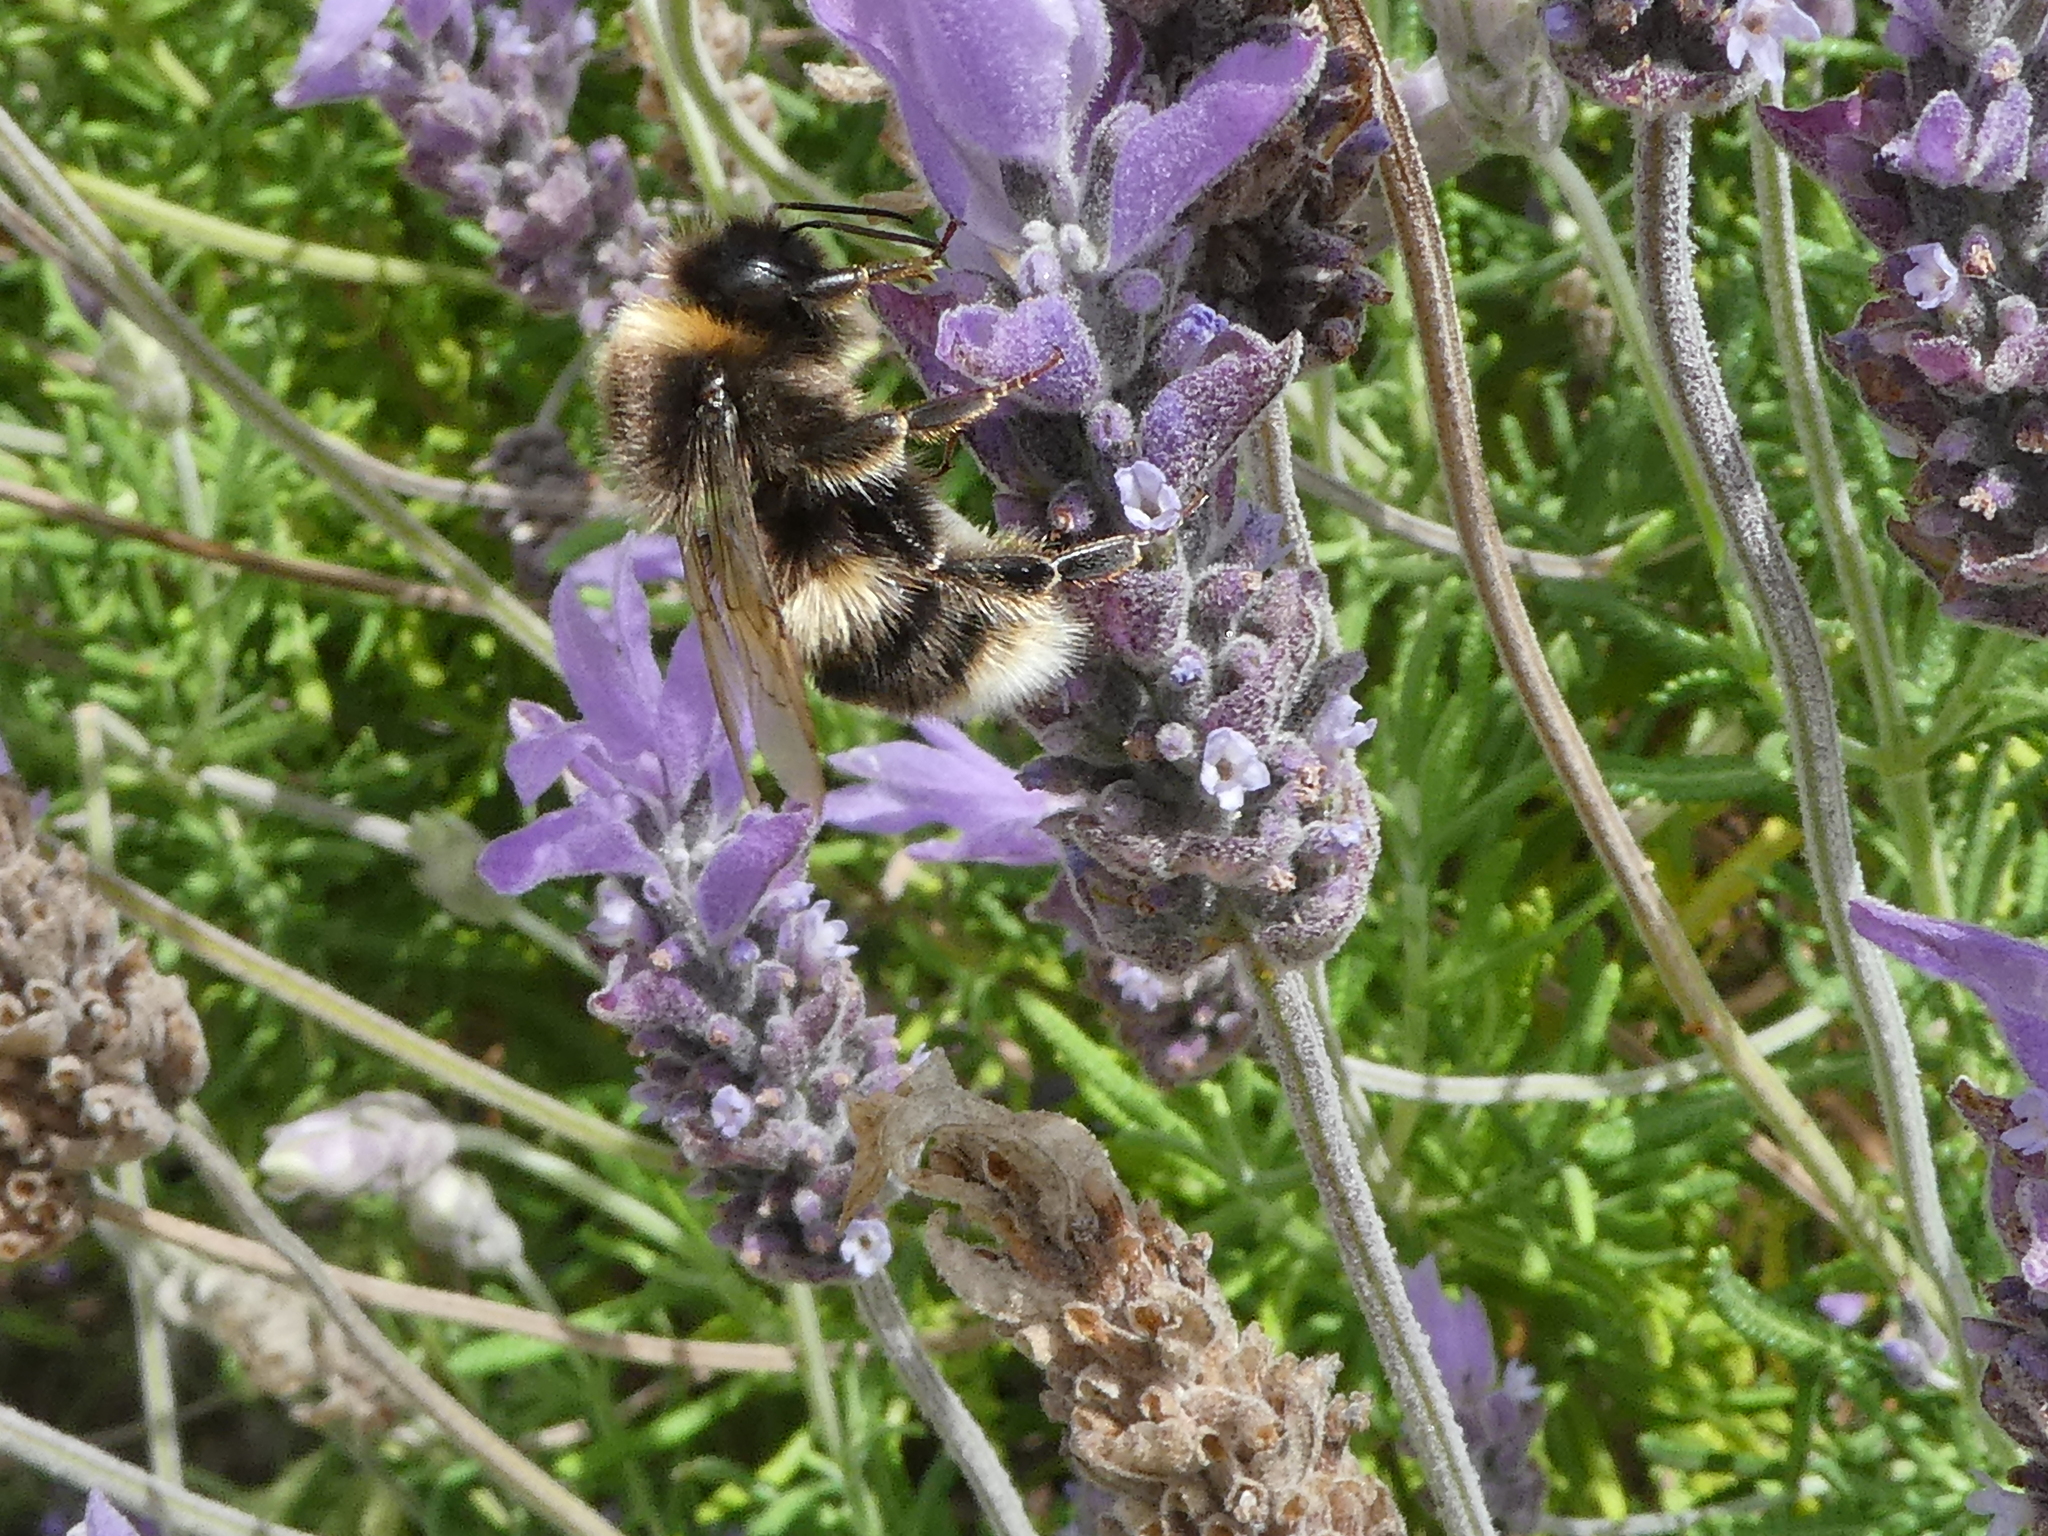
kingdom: Animalia
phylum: Arthropoda
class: Insecta
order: Hymenoptera
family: Apidae
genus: Bombus
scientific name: Bombus terrestris
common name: Buff-tailed bumblebee
